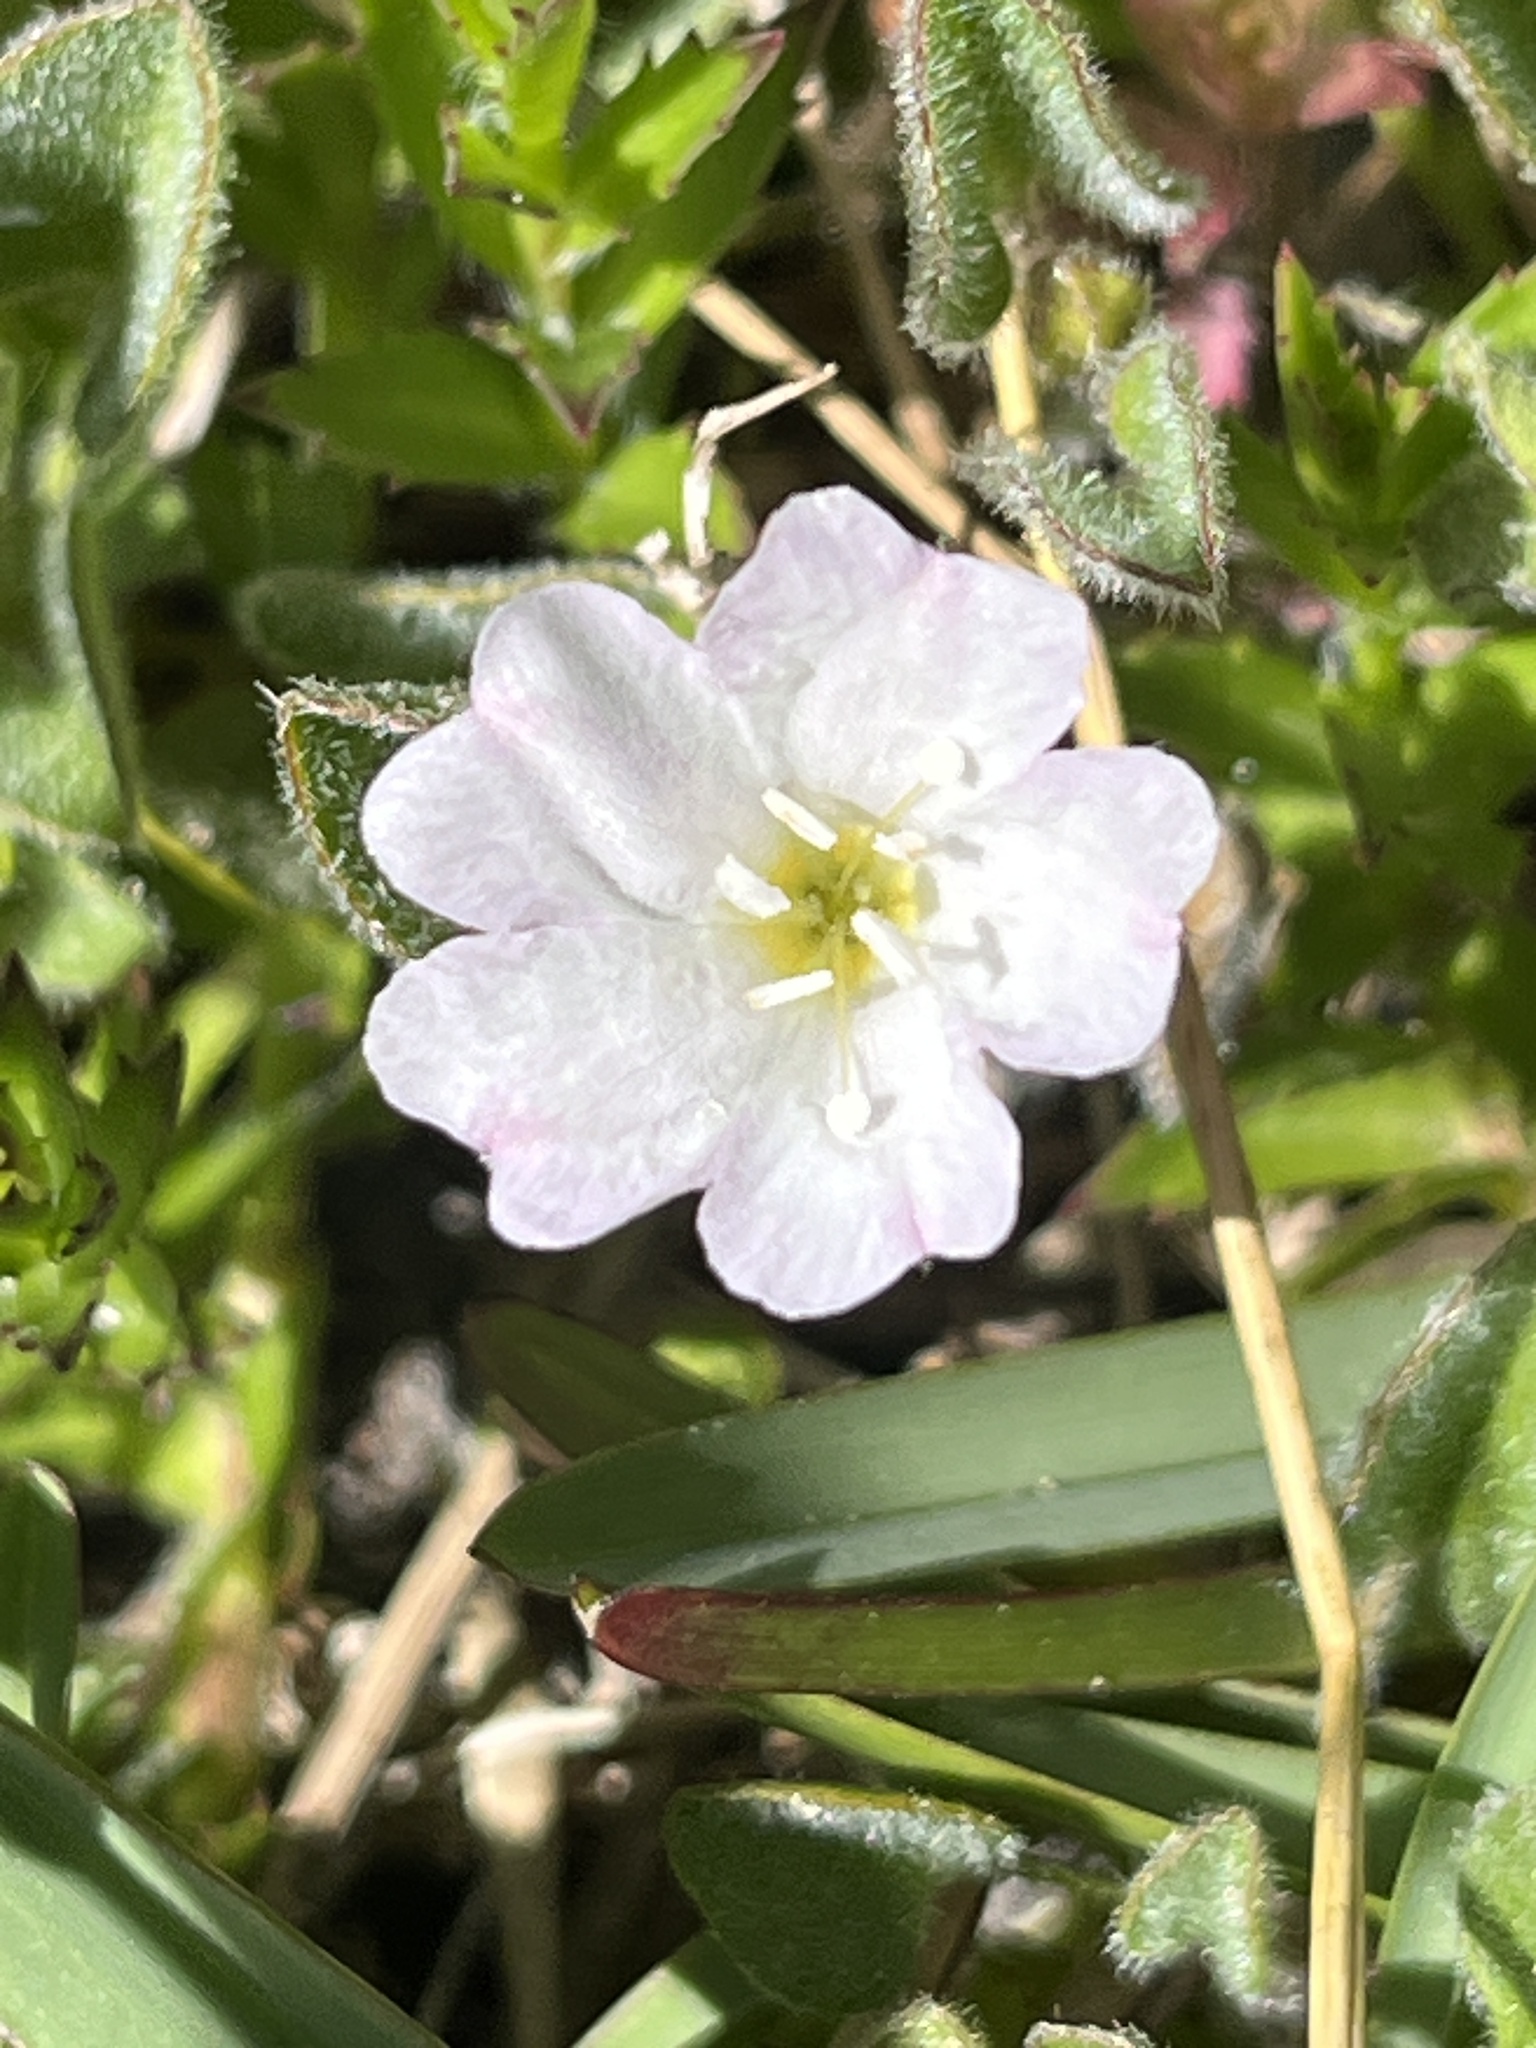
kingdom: Plantae
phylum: Tracheophyta
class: Magnoliopsida
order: Solanales
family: Convolvulaceae
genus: Falkia
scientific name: Falkia repens
